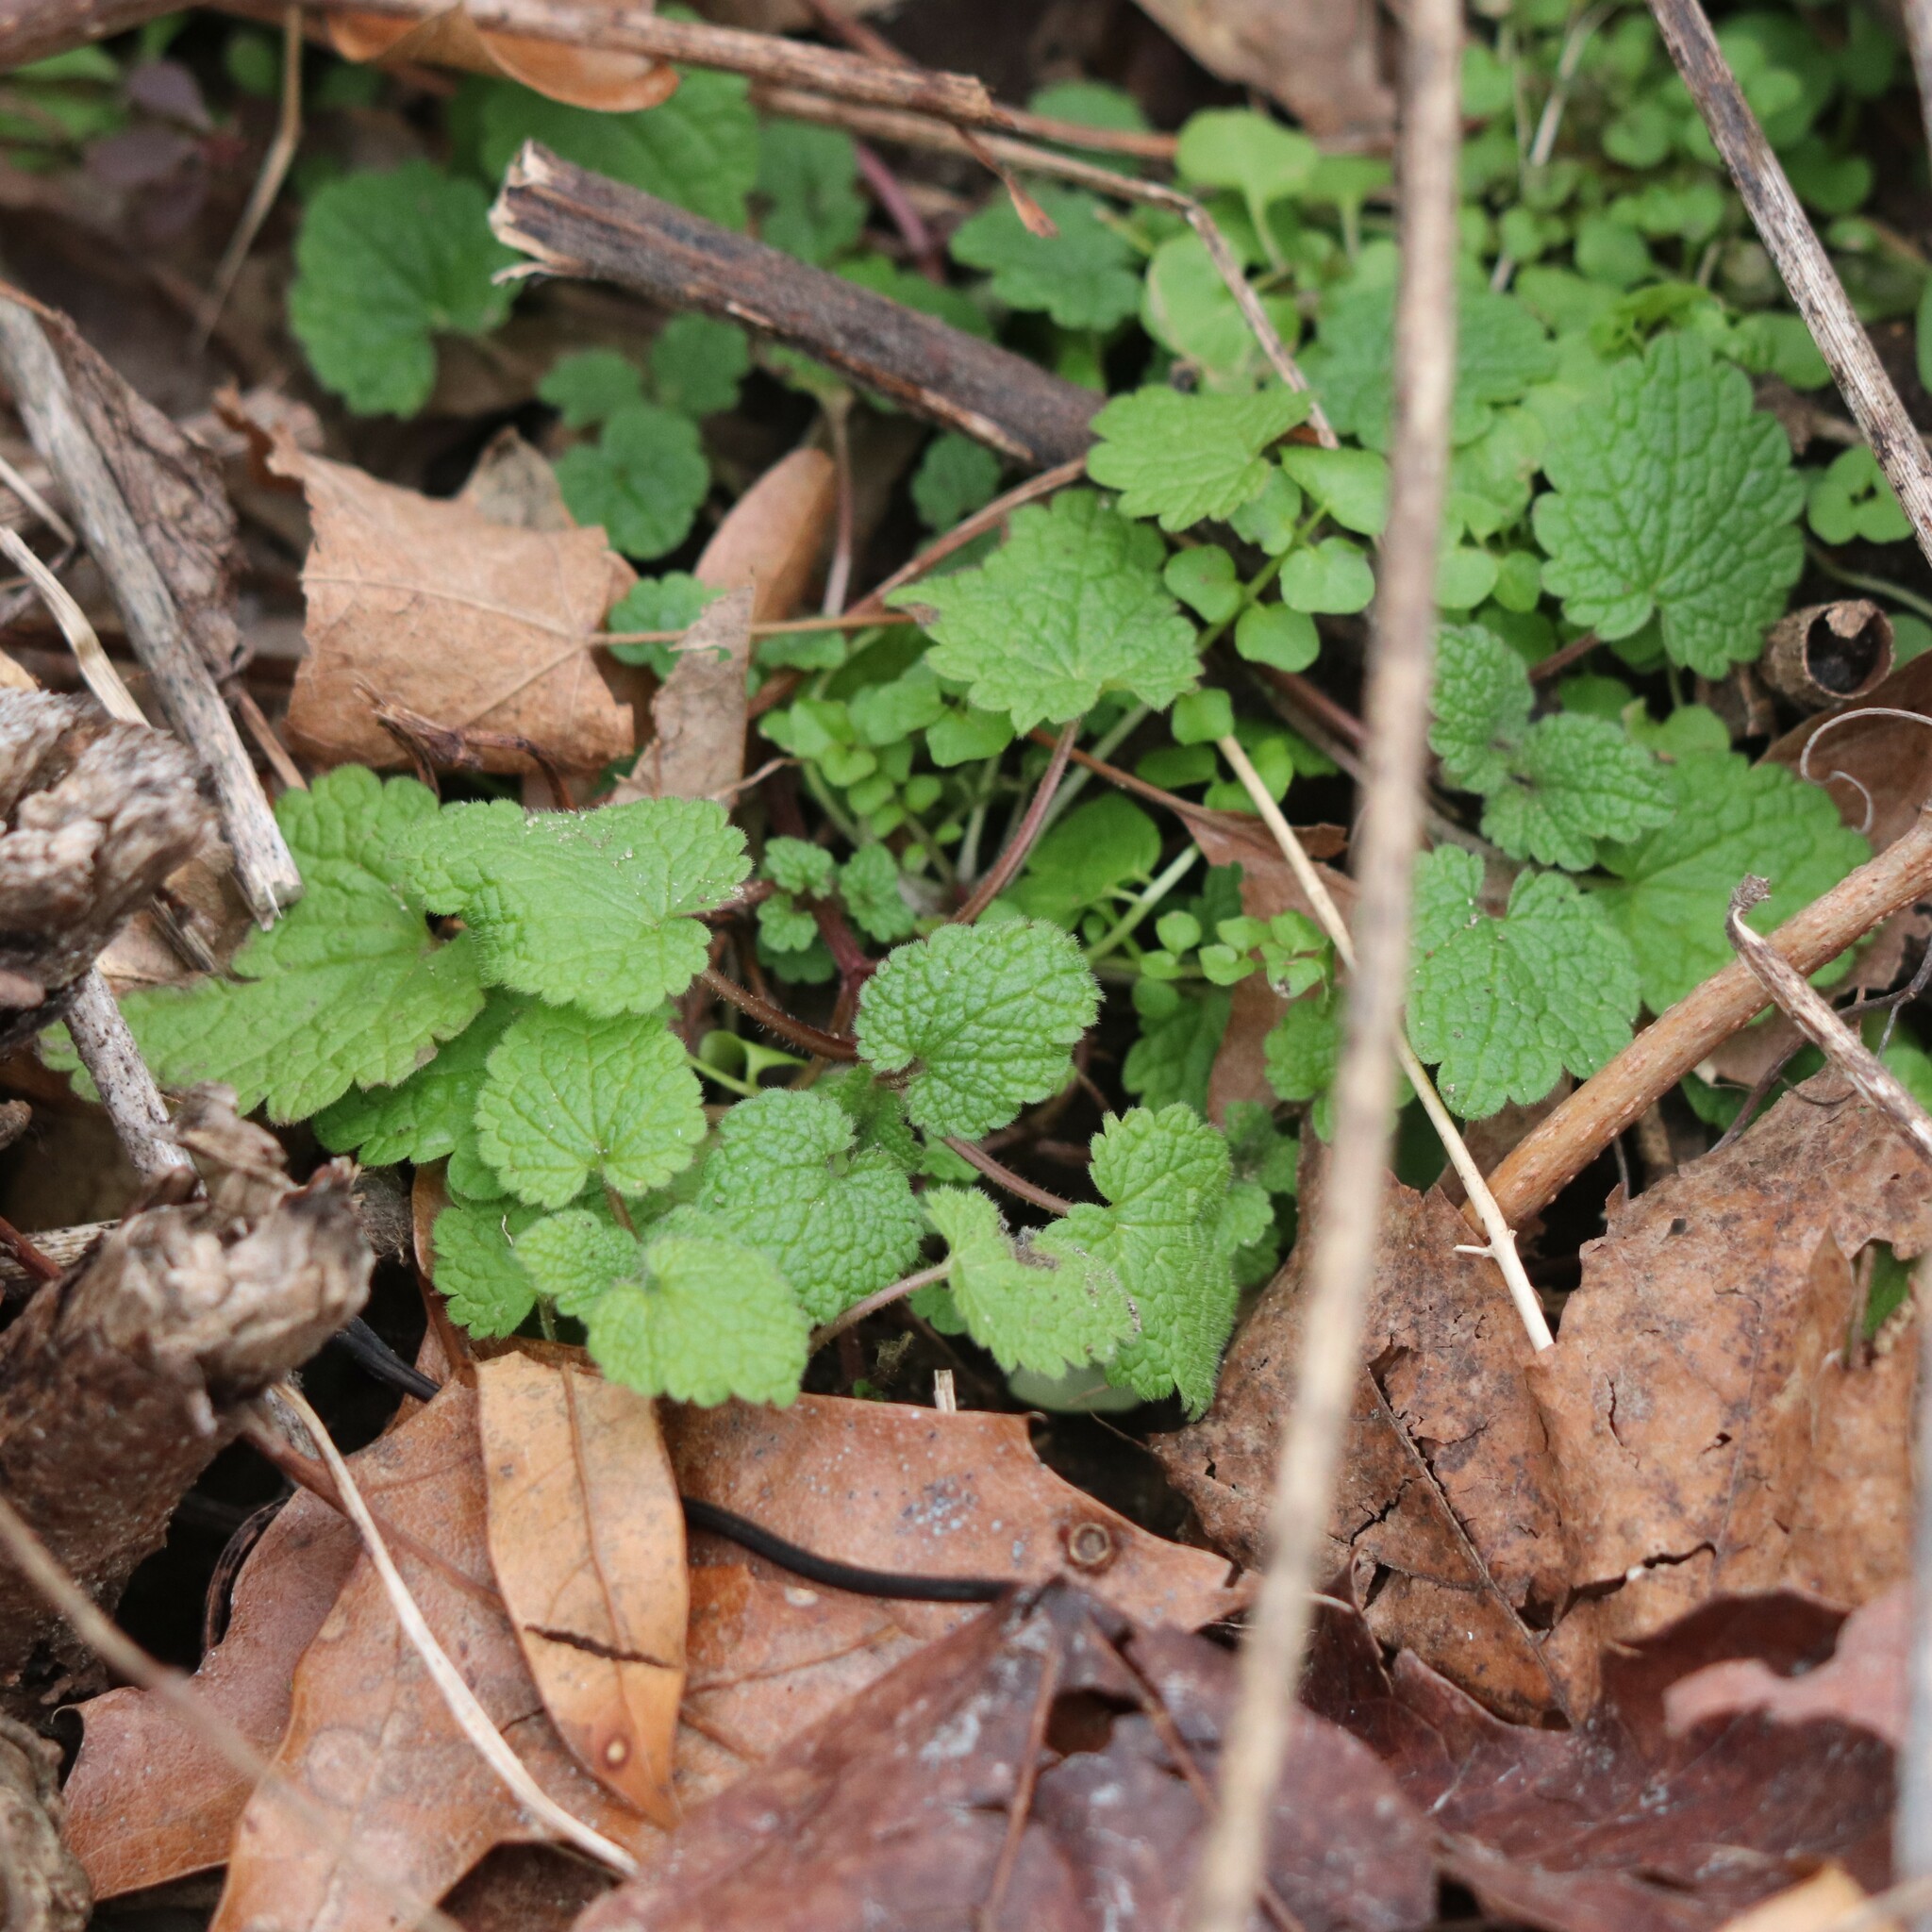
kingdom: Plantae
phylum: Tracheophyta
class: Magnoliopsida
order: Lamiales
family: Lamiaceae
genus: Lamium
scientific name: Lamium purpureum
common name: Red dead-nettle
